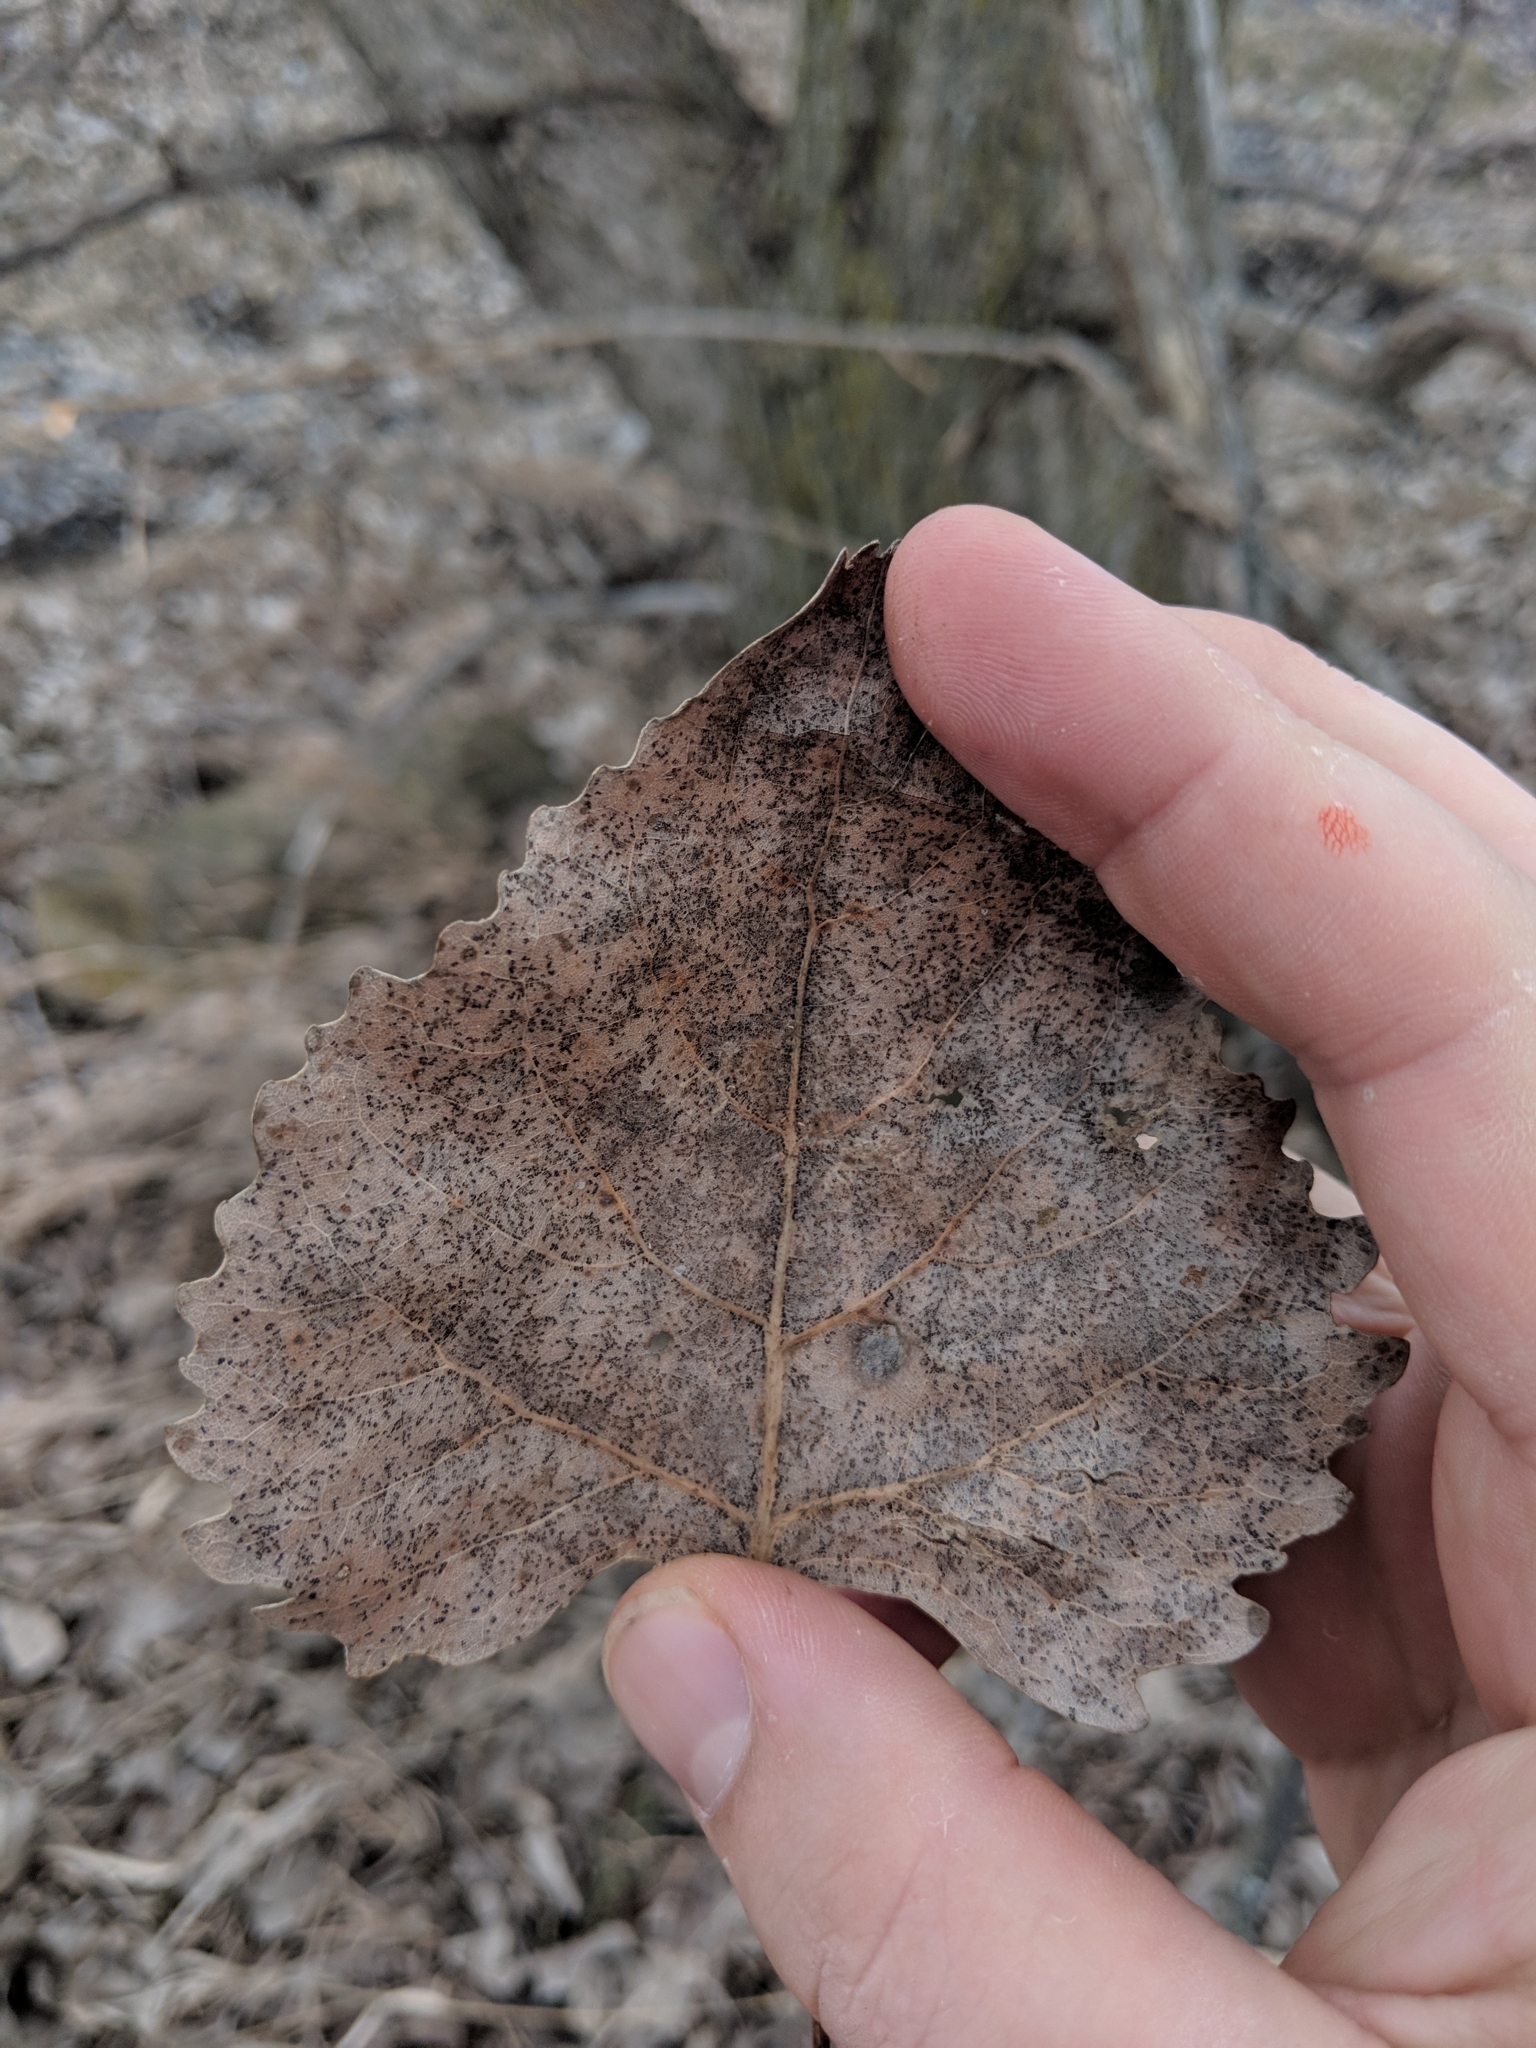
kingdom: Plantae
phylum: Tracheophyta
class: Magnoliopsida
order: Malpighiales
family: Salicaceae
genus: Populus
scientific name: Populus deltoides
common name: Eastern cottonwood
